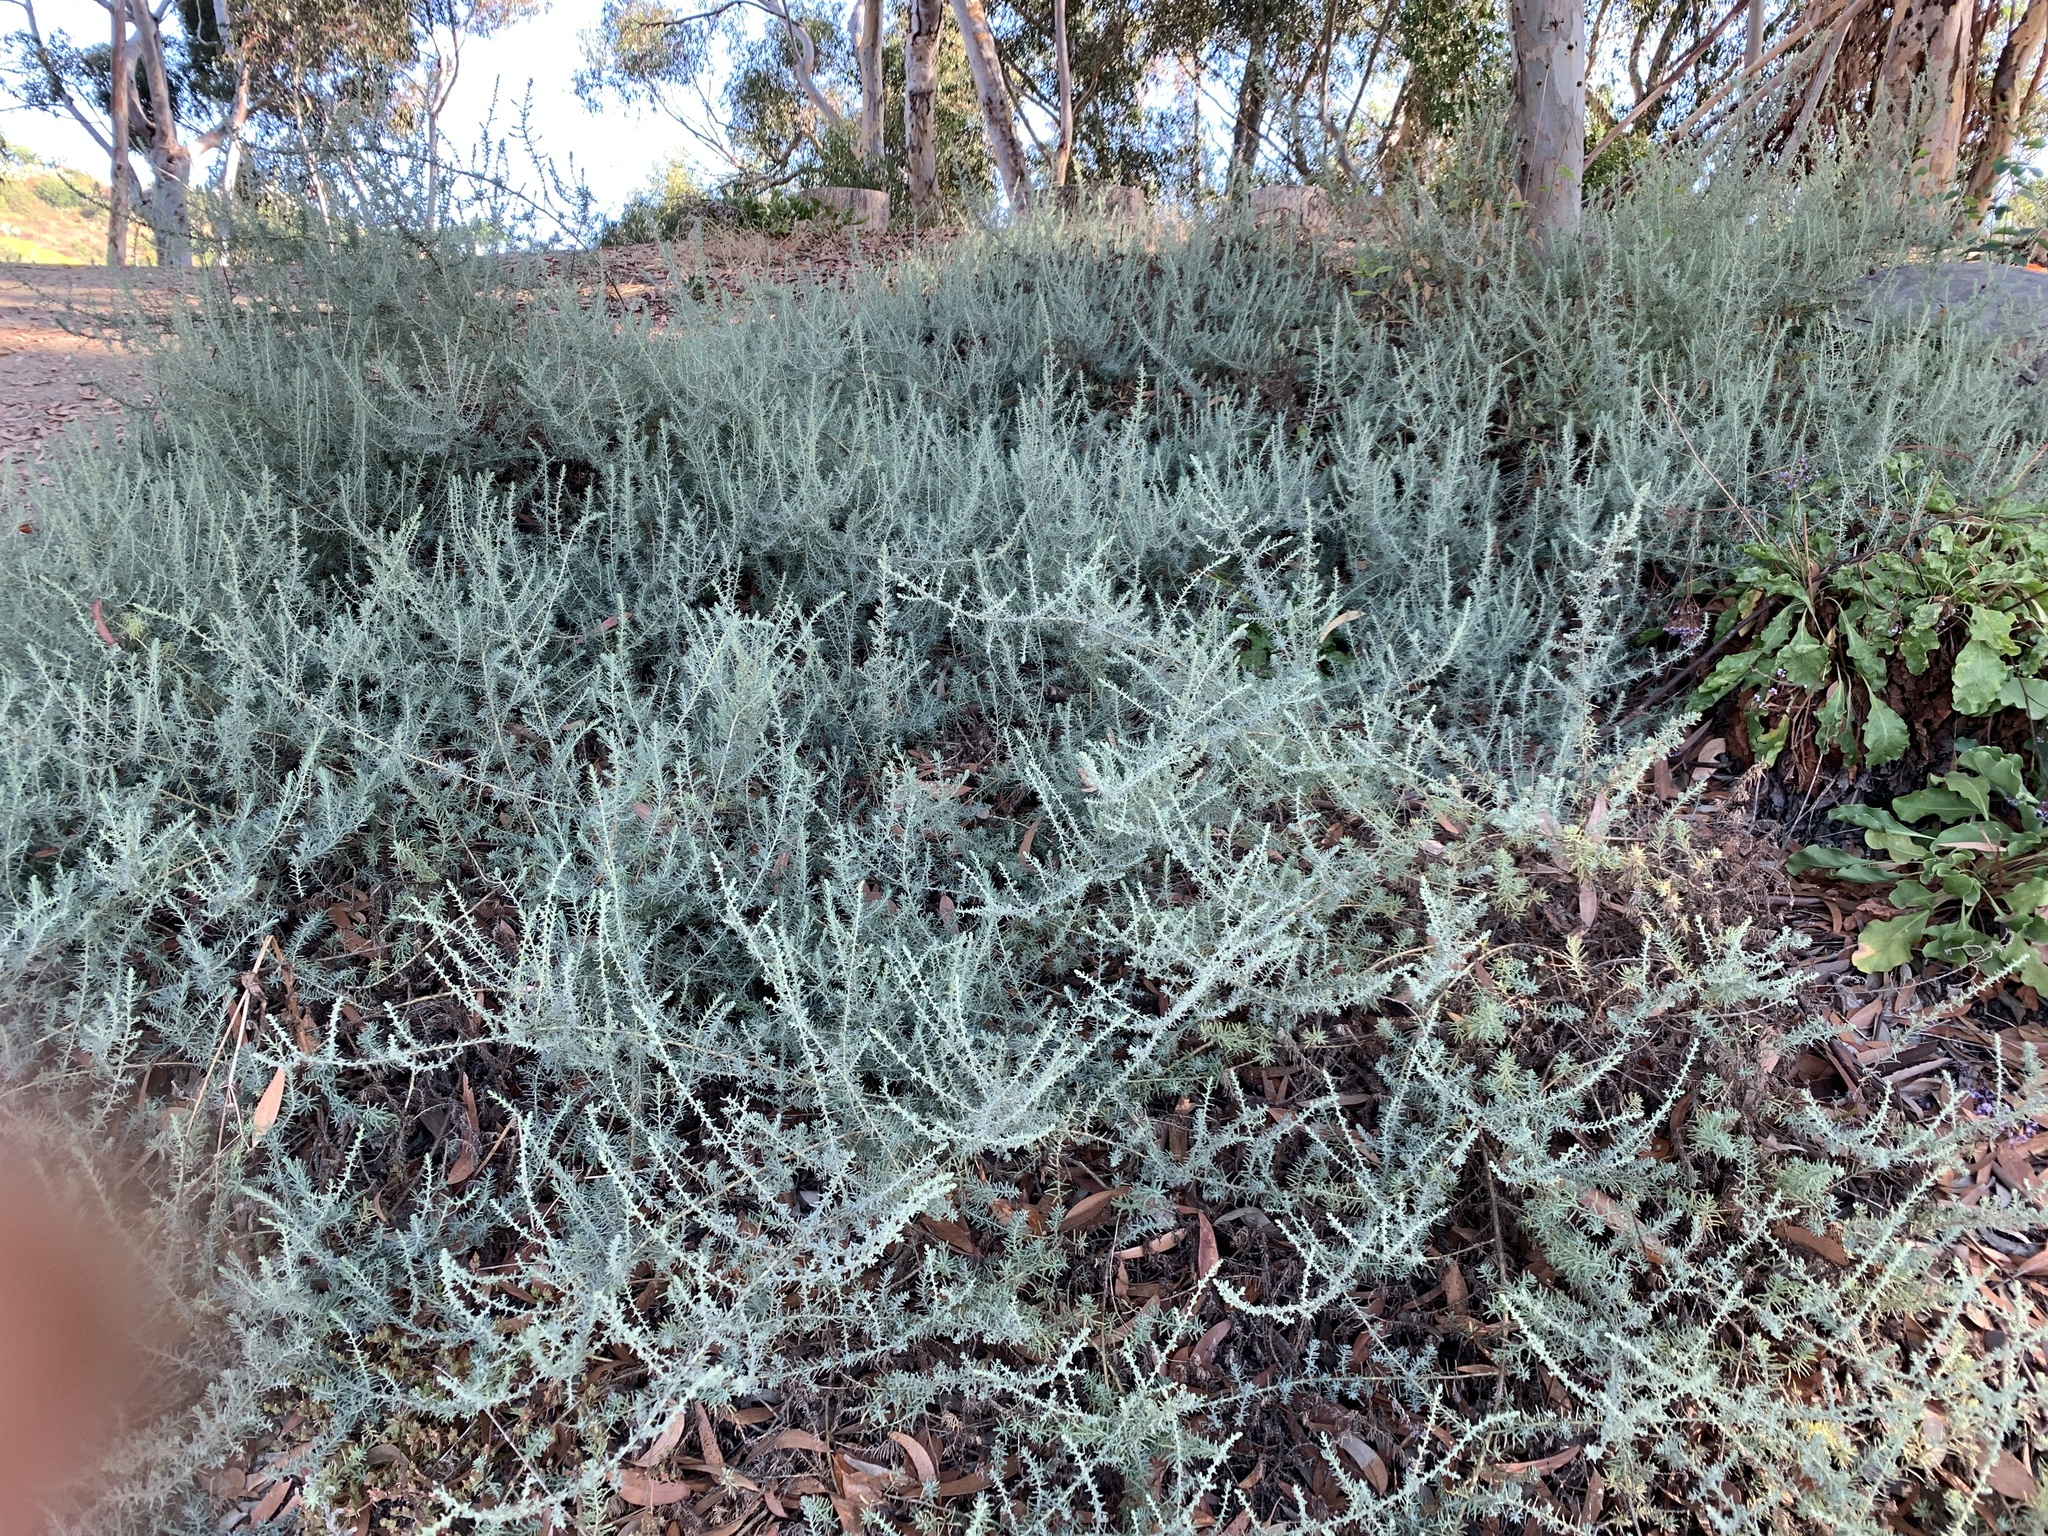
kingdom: Plantae
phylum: Tracheophyta
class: Magnoliopsida
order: Caryophyllales
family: Amaranthaceae
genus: Suaeda
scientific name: Suaeda
